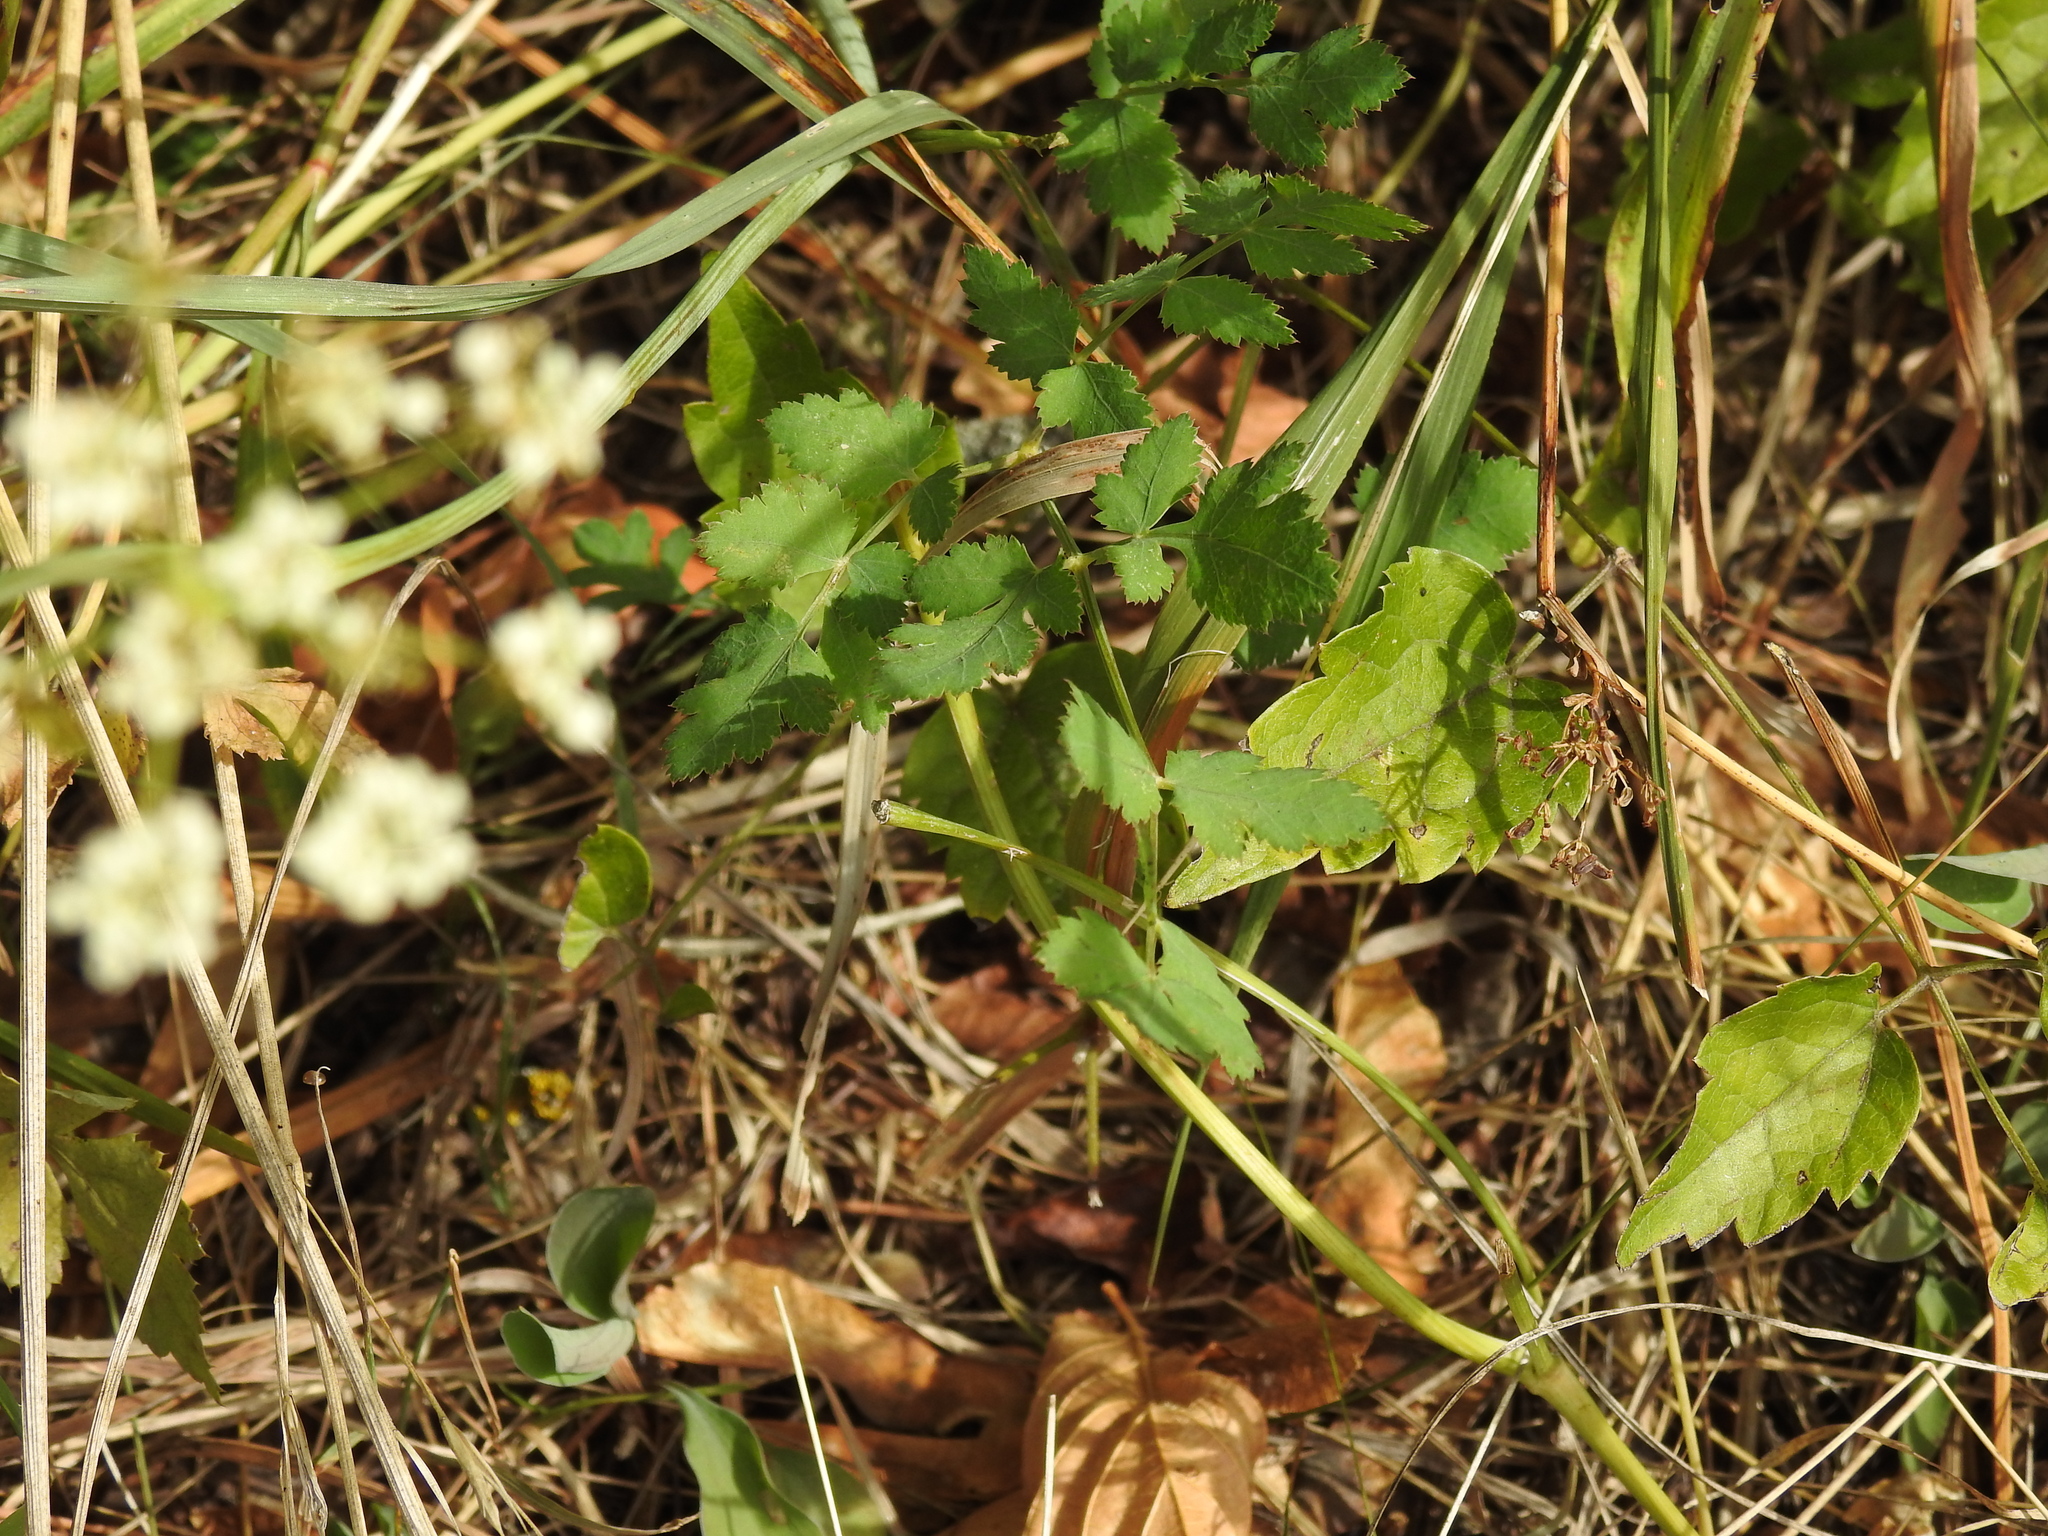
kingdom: Plantae
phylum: Tracheophyta
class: Magnoliopsida
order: Apiales
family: Apiaceae
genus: Cervaria
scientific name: Cervaria rivini
